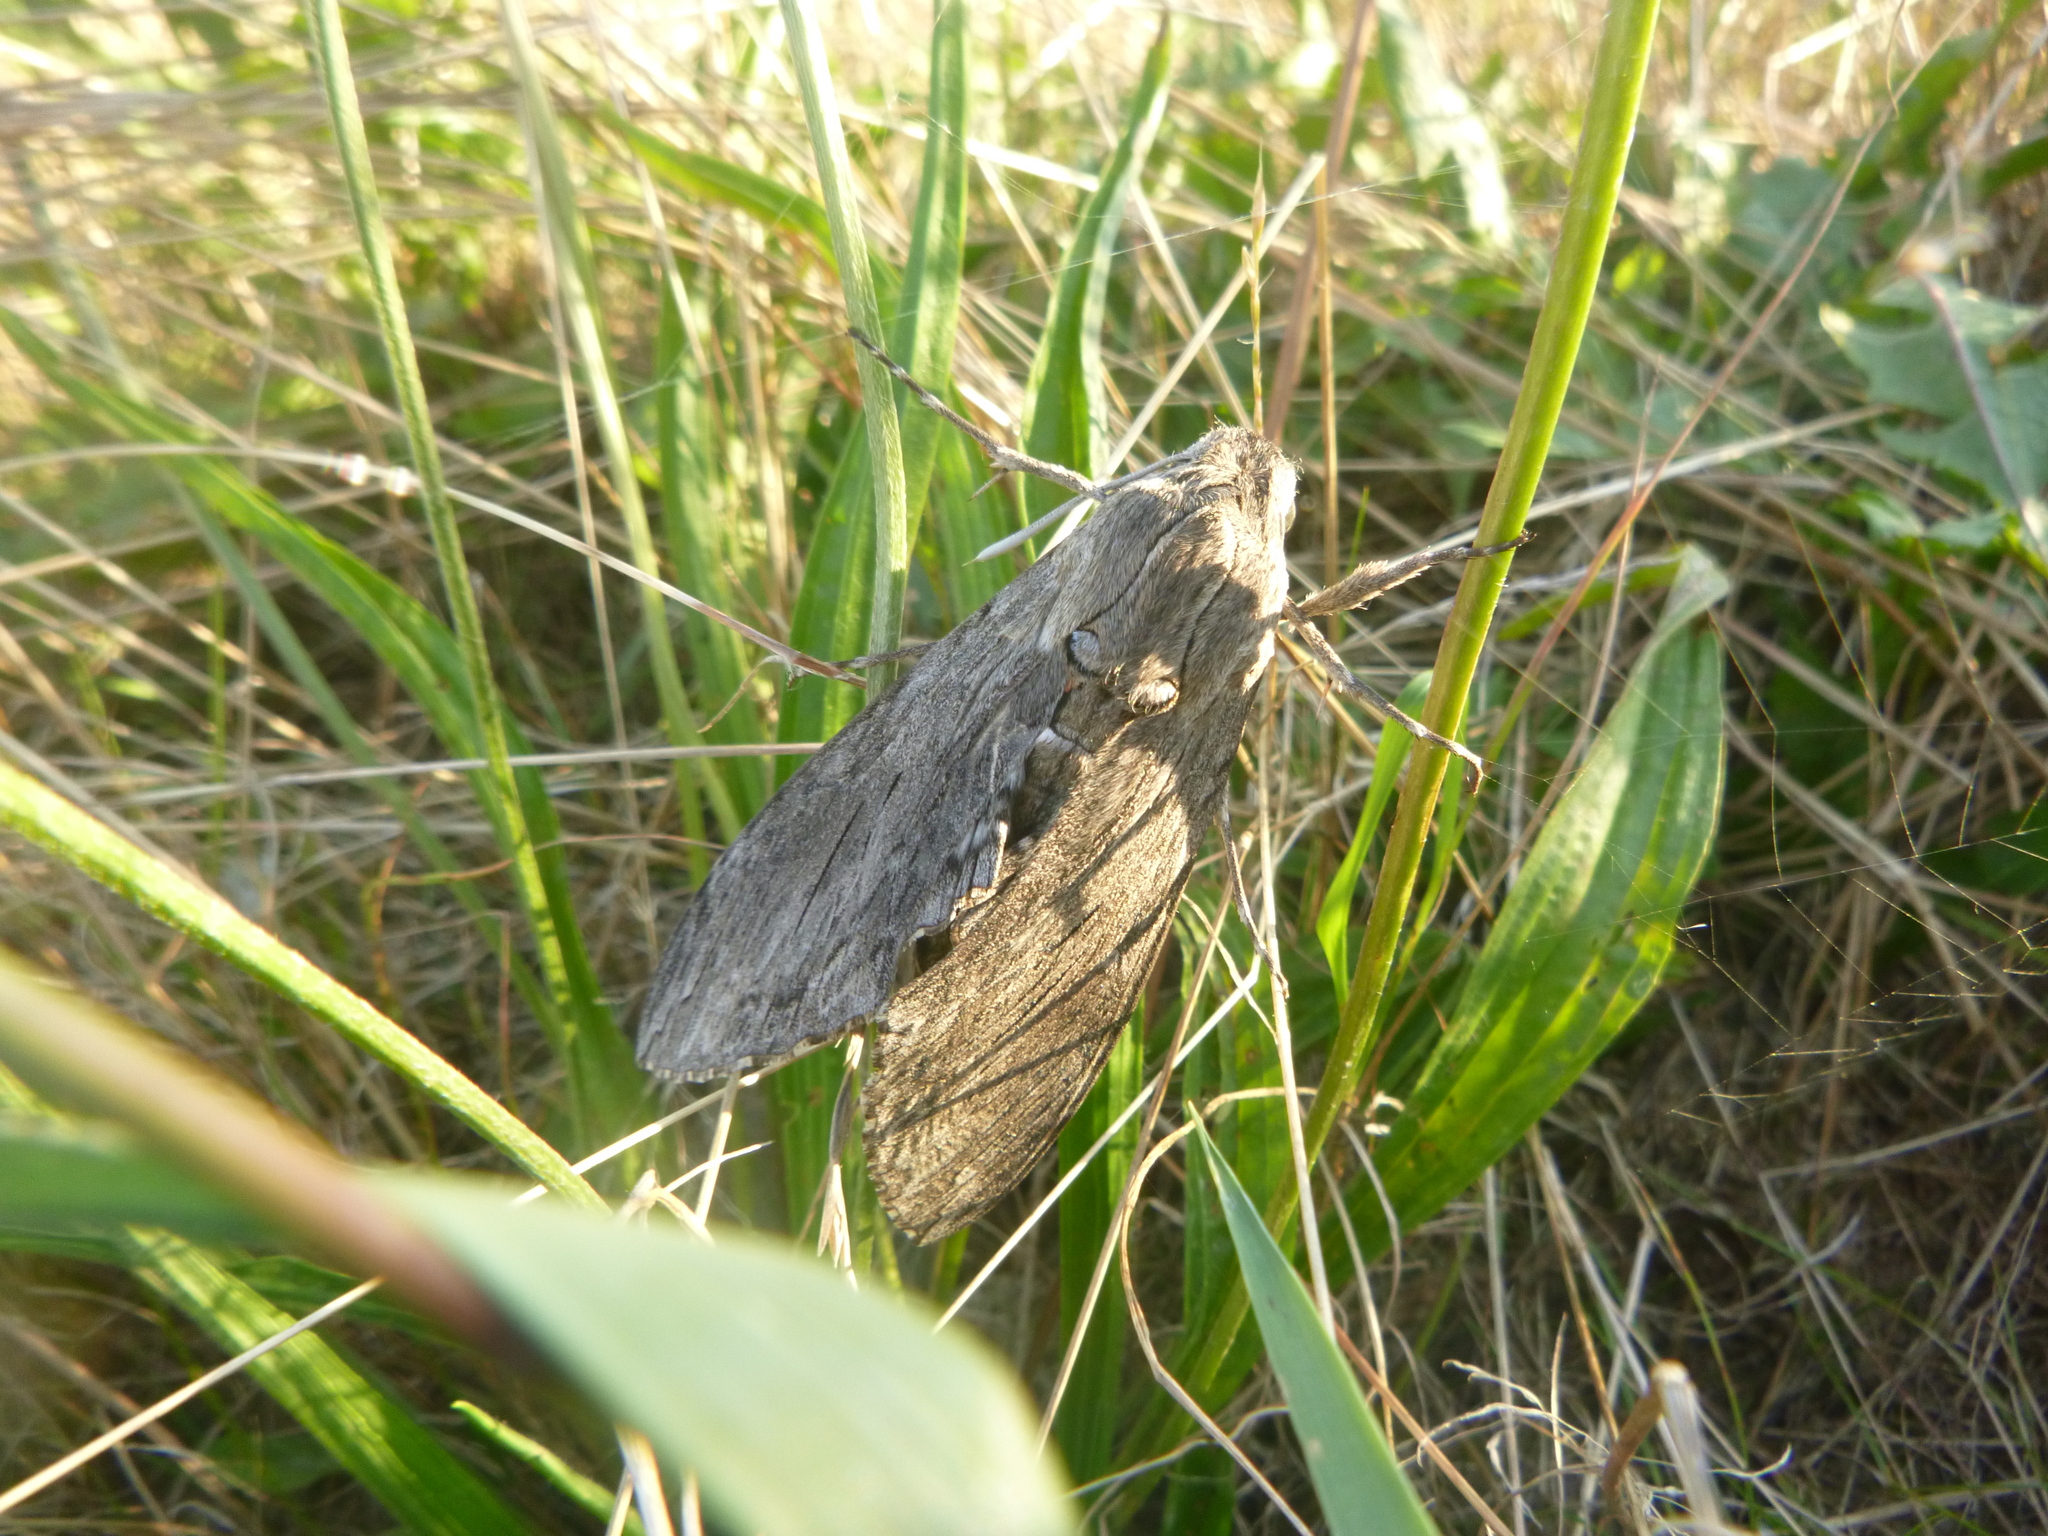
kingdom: Animalia
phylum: Arthropoda
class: Insecta
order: Lepidoptera
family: Sphingidae
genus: Agrius
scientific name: Agrius convolvuli
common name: Convolvulus hawkmoth
